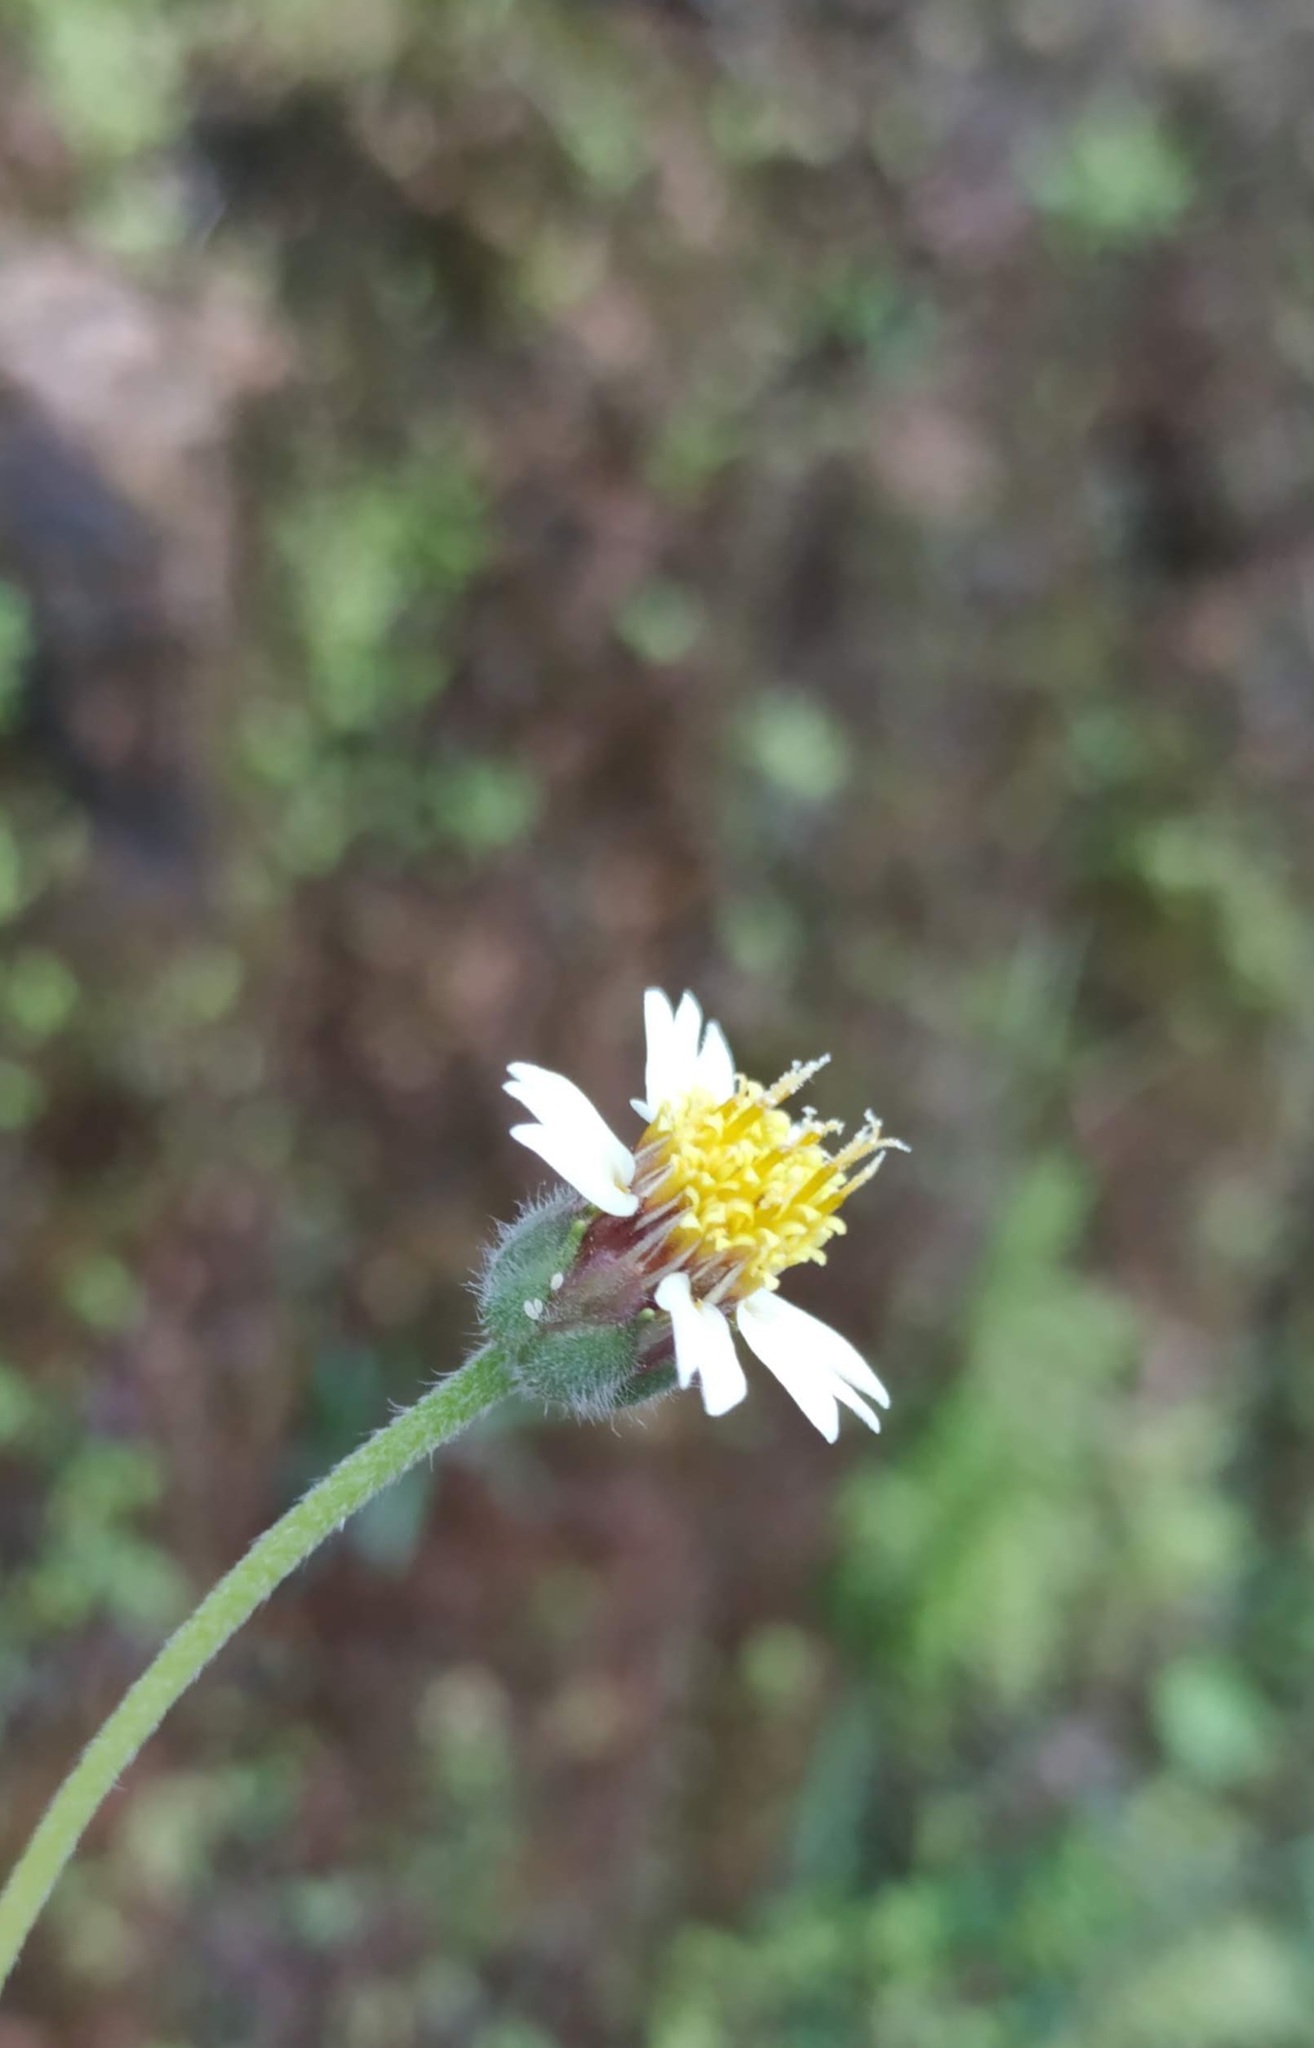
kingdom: Plantae
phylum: Tracheophyta
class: Magnoliopsida
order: Asterales
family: Asteraceae
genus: Tridax
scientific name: Tridax procumbens
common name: Coatbuttons
